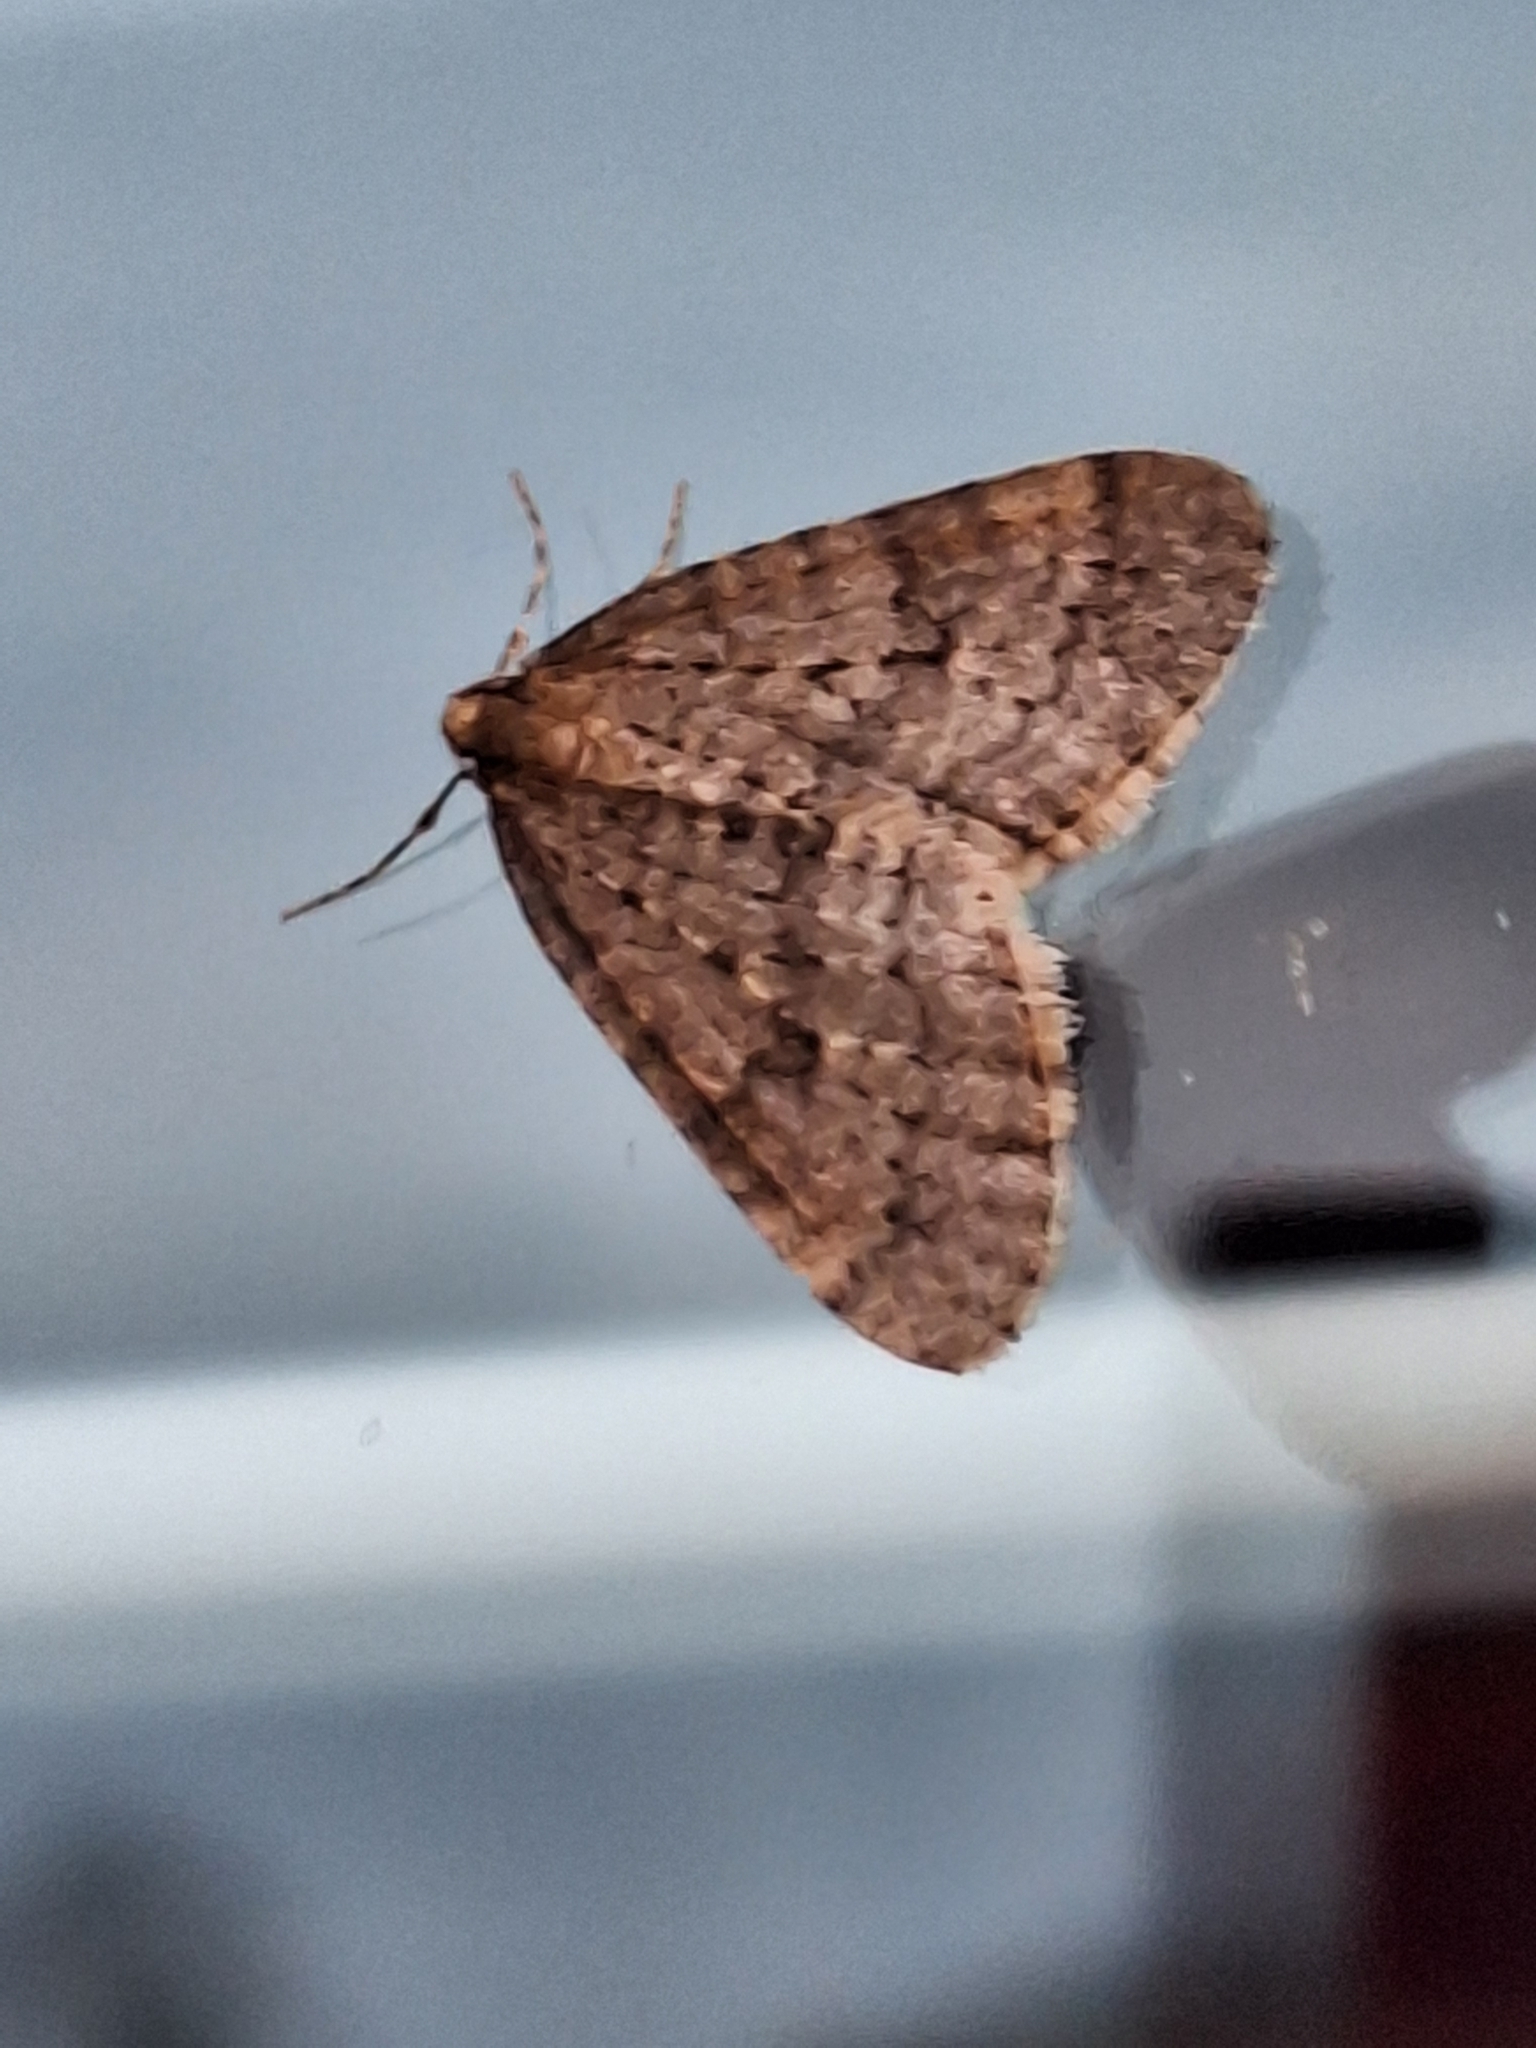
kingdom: Animalia
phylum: Arthropoda
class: Insecta
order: Lepidoptera
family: Geometridae
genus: Operophtera
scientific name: Operophtera brumata
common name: Winter moth
